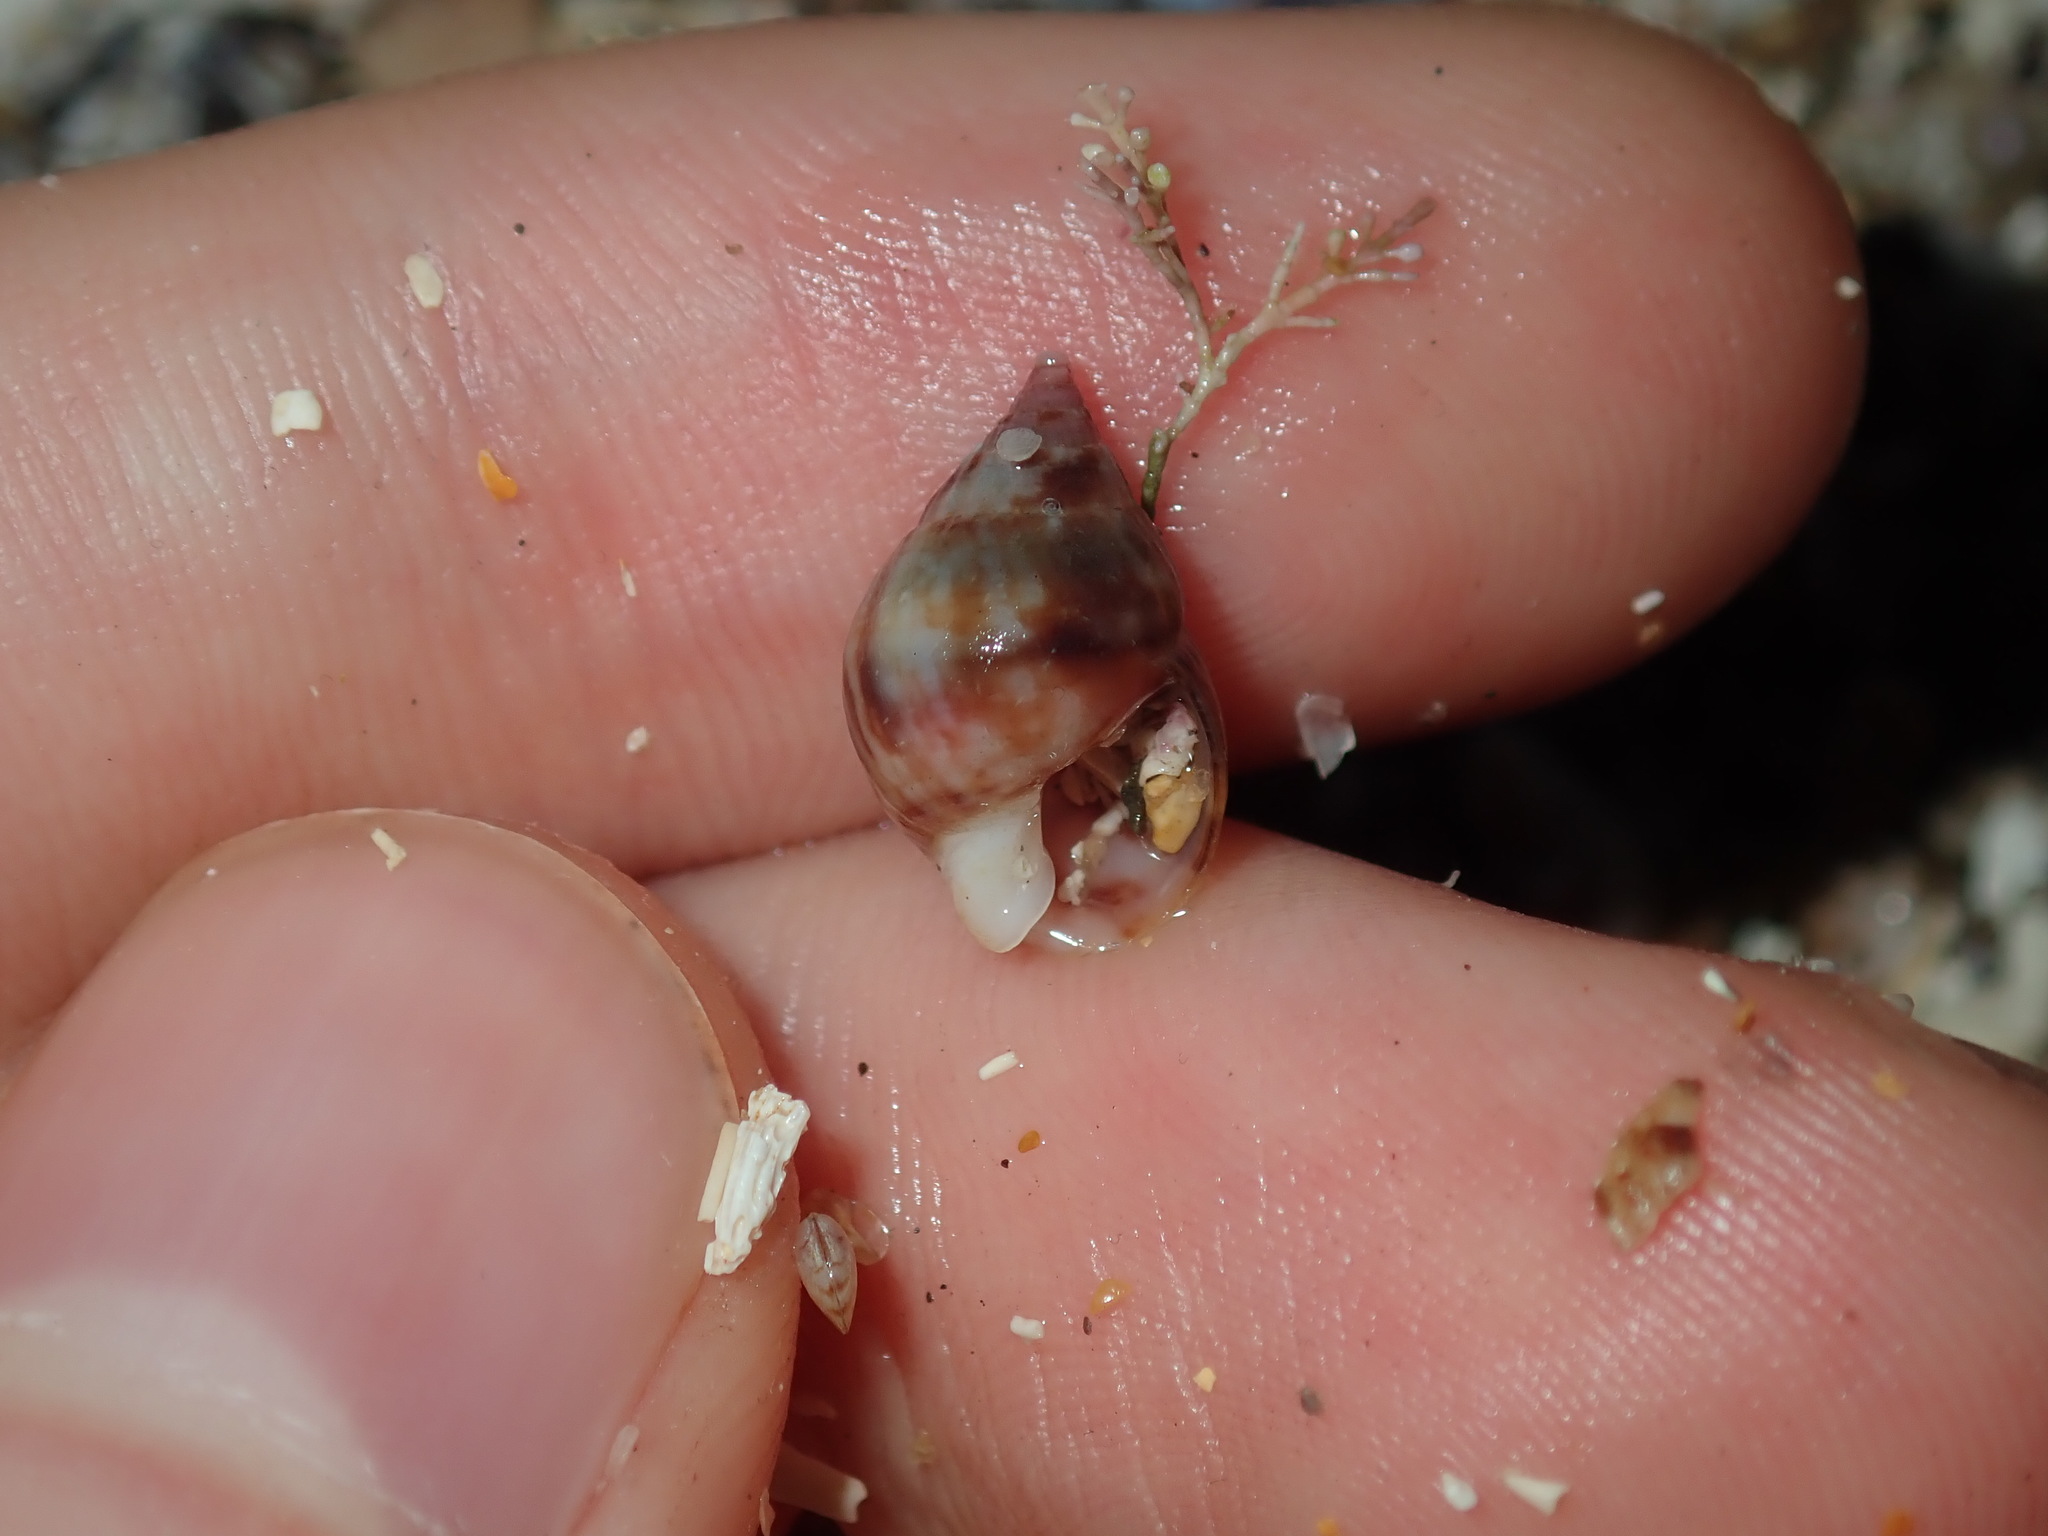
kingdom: Animalia
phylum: Mollusca
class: Gastropoda
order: Neogastropoda
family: Nassariidae
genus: Nassarius
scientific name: Nassarius gaudiosus
